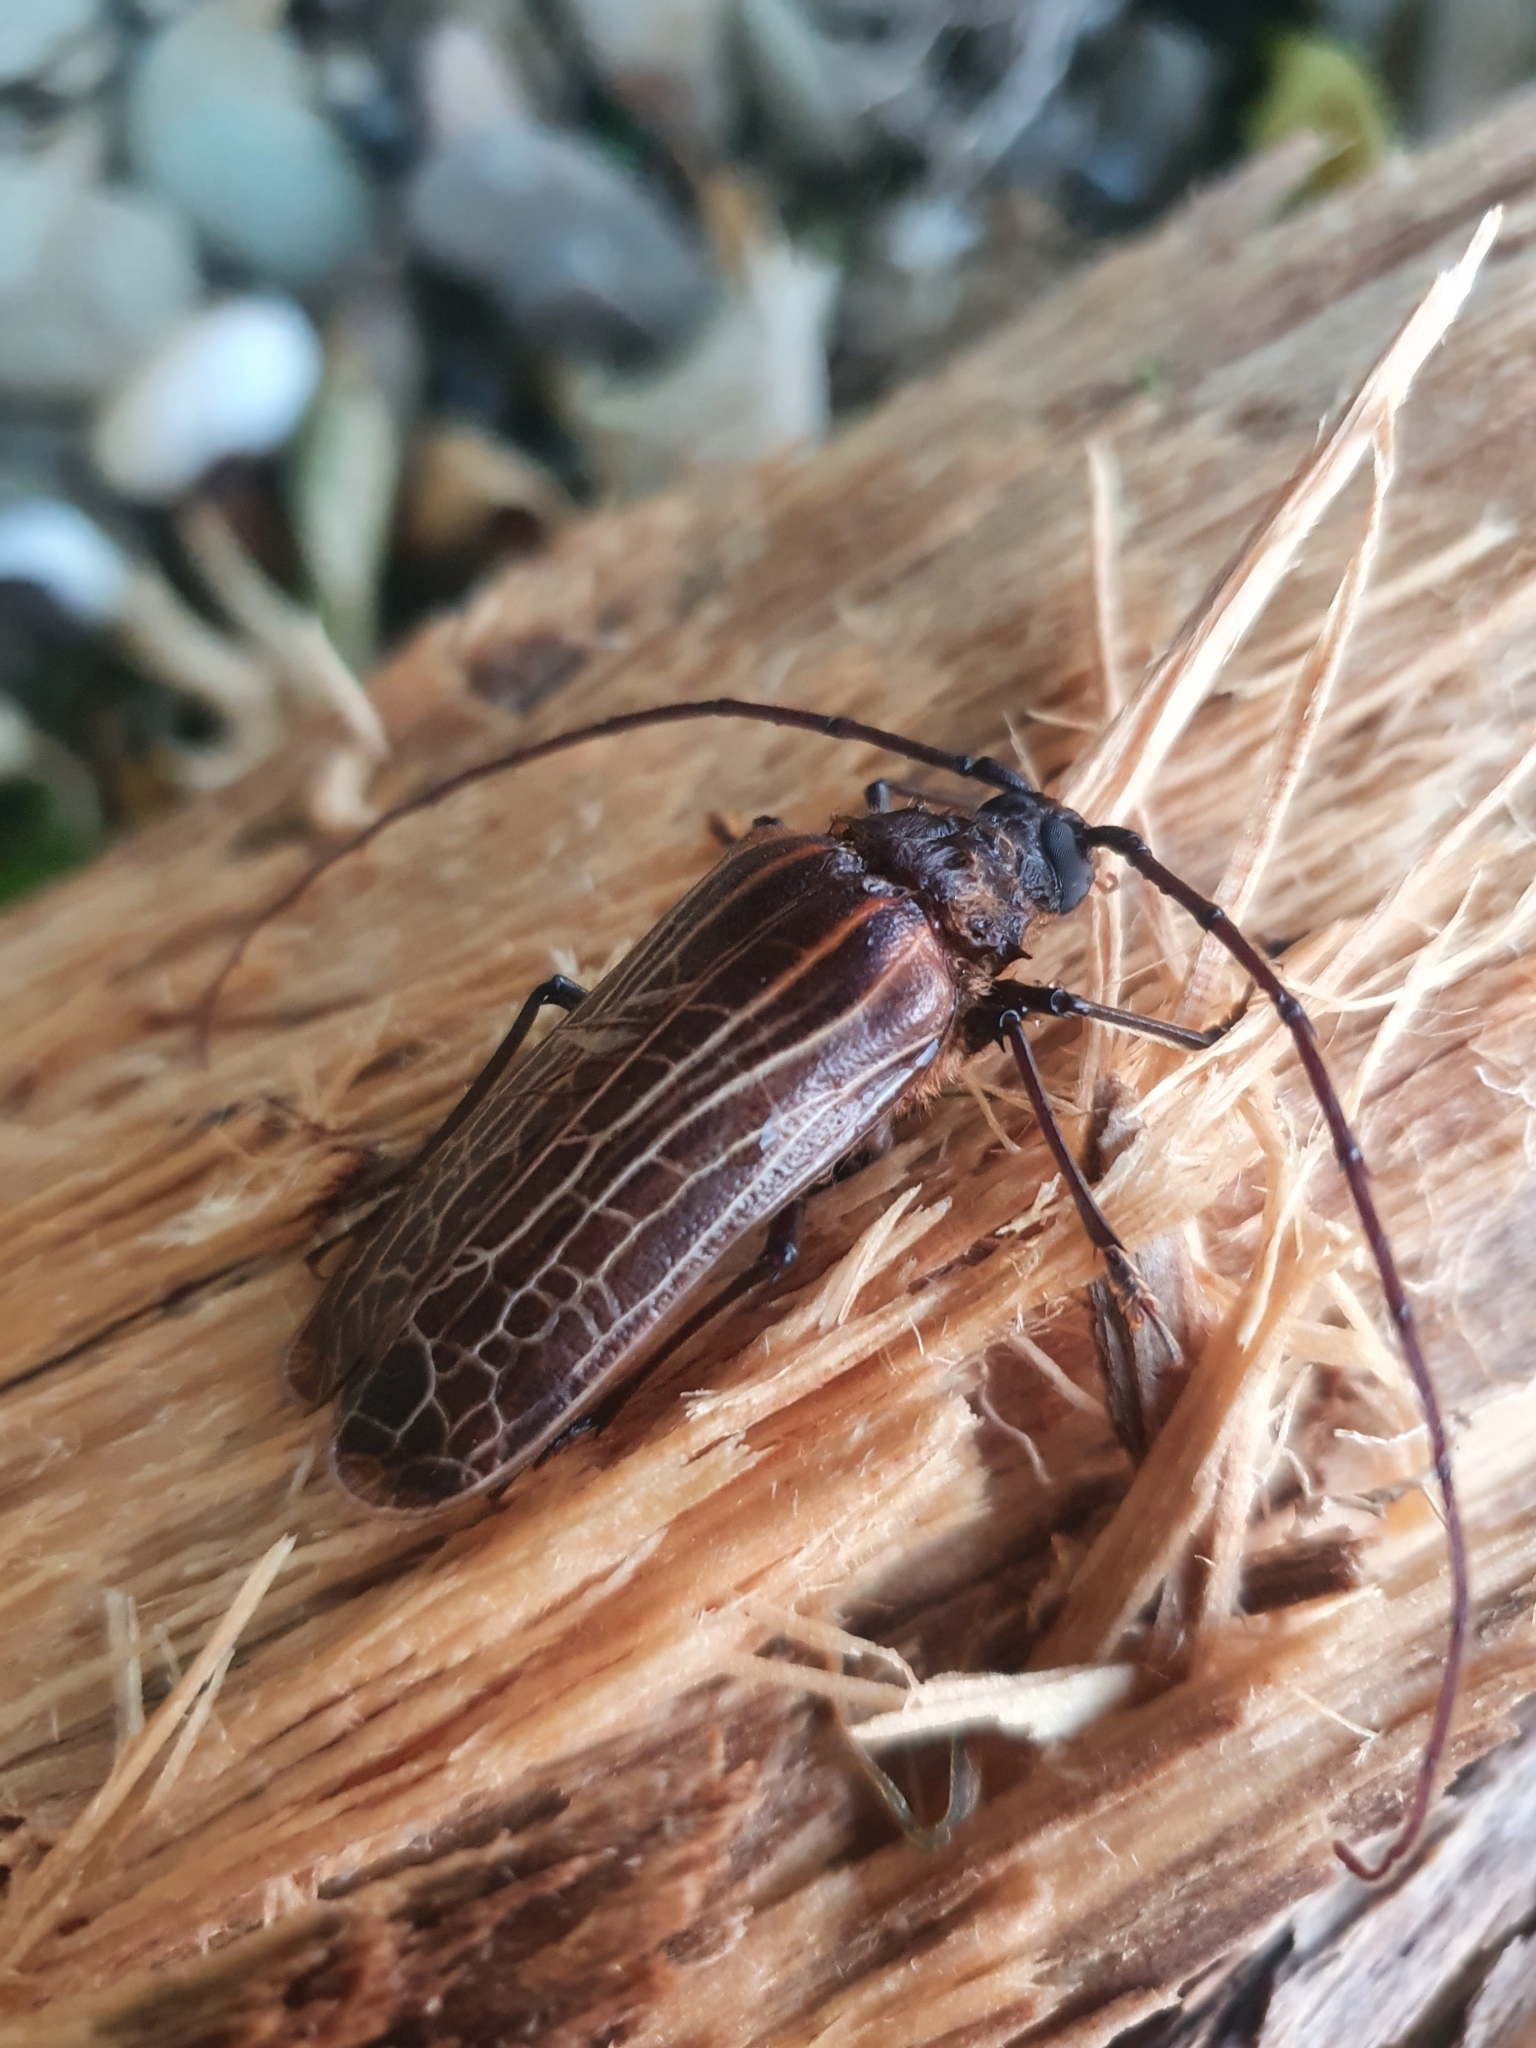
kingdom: Animalia
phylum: Arthropoda
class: Insecta
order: Coleoptera
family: Cerambycidae
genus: Prionoplus
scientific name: Prionoplus reticularis
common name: Huhu beetle
